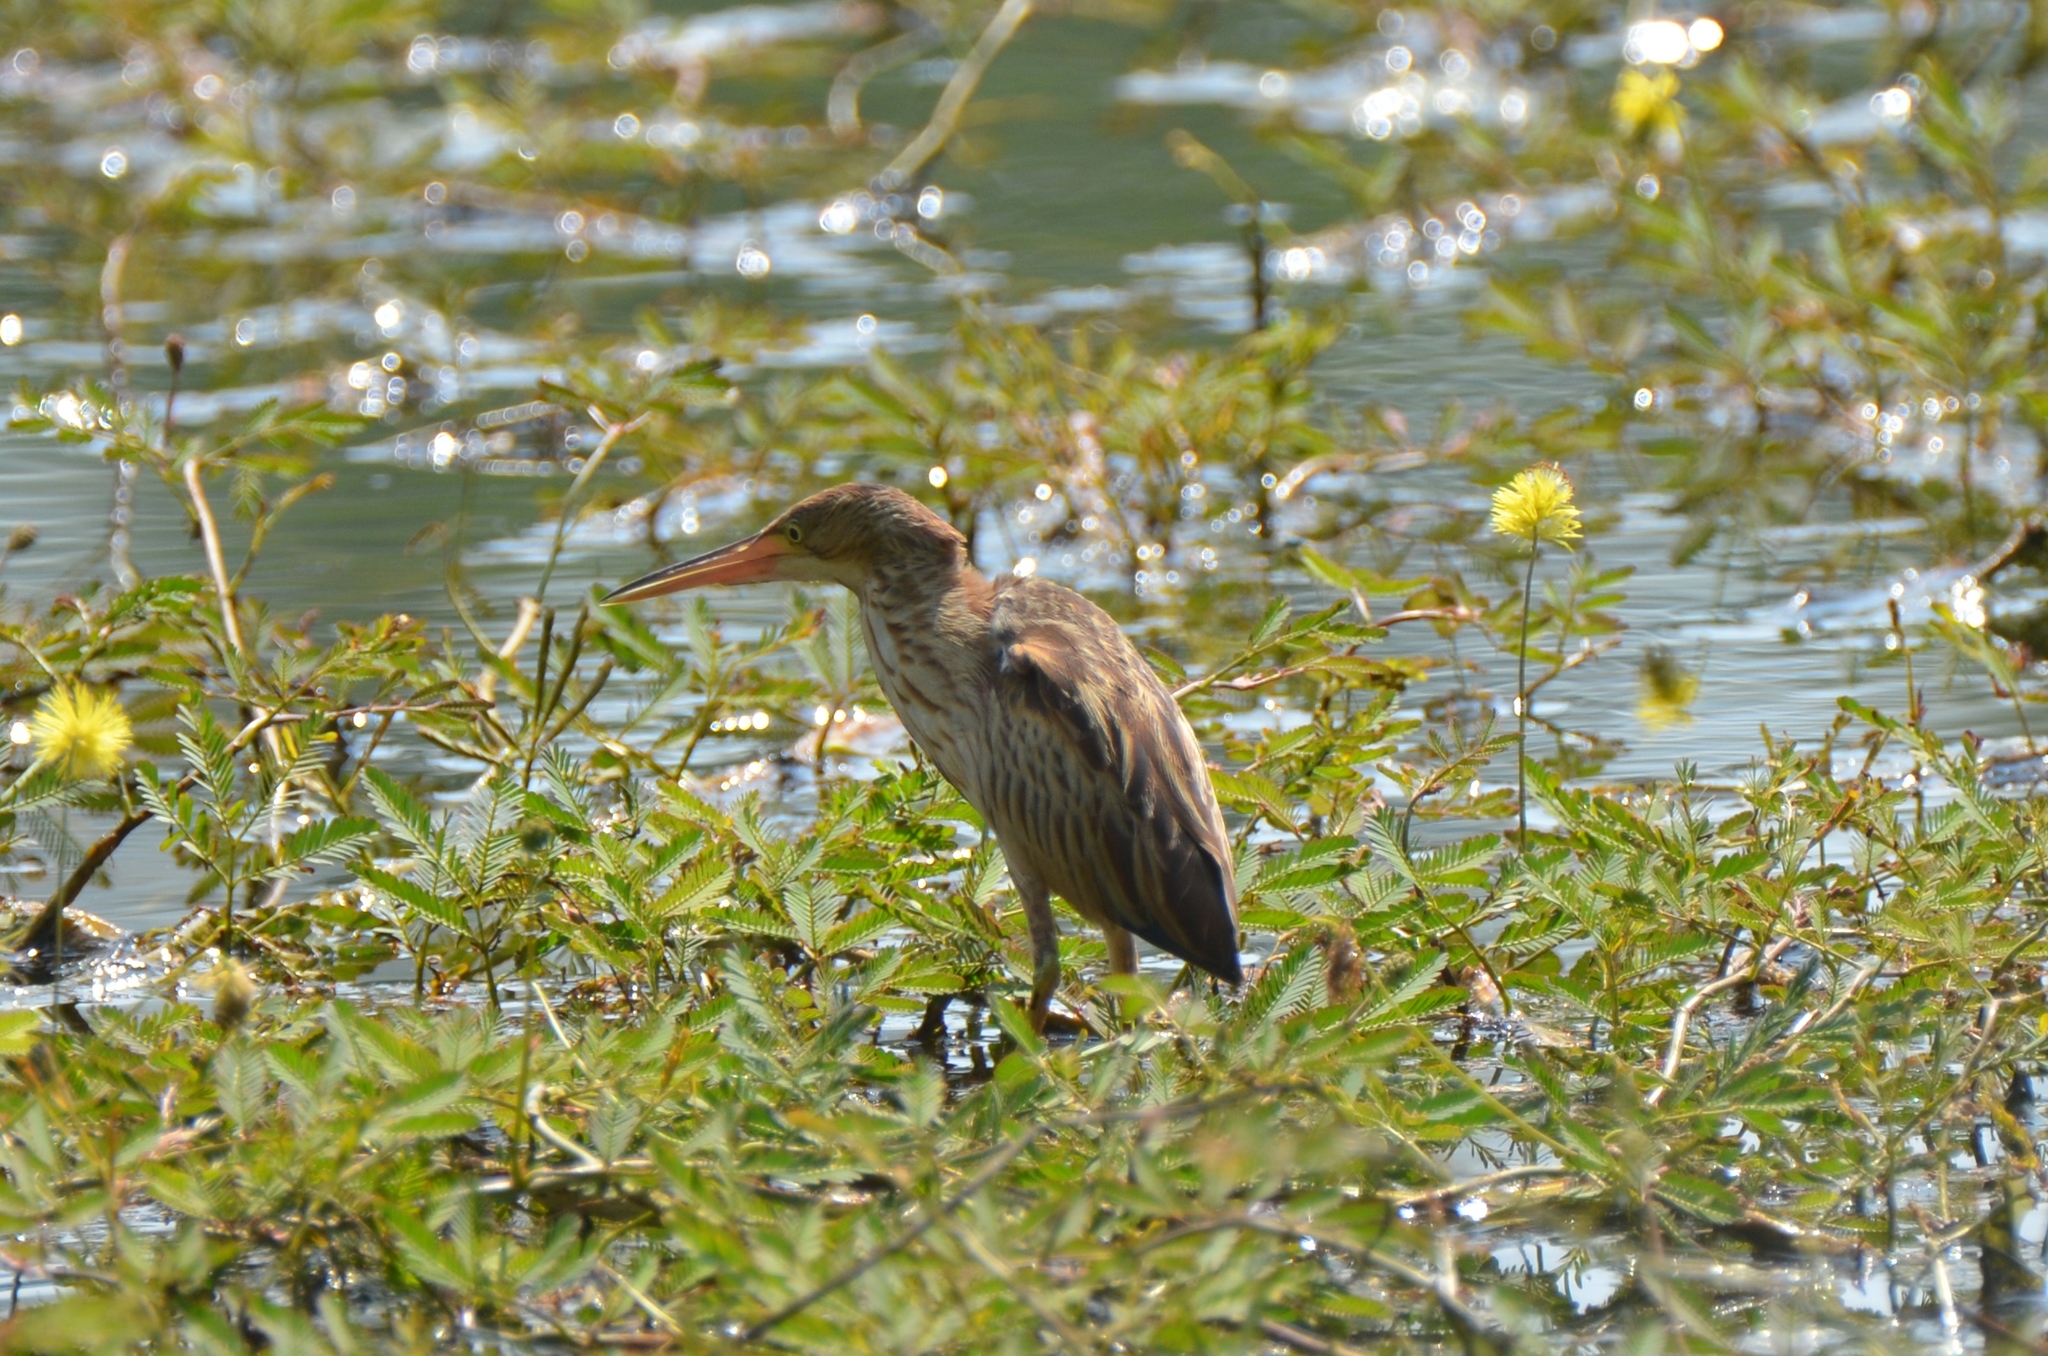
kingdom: Animalia
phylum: Chordata
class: Aves
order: Pelecaniformes
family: Ardeidae
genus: Ixobrychus
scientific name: Ixobrychus sinensis
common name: Yellow bittern
